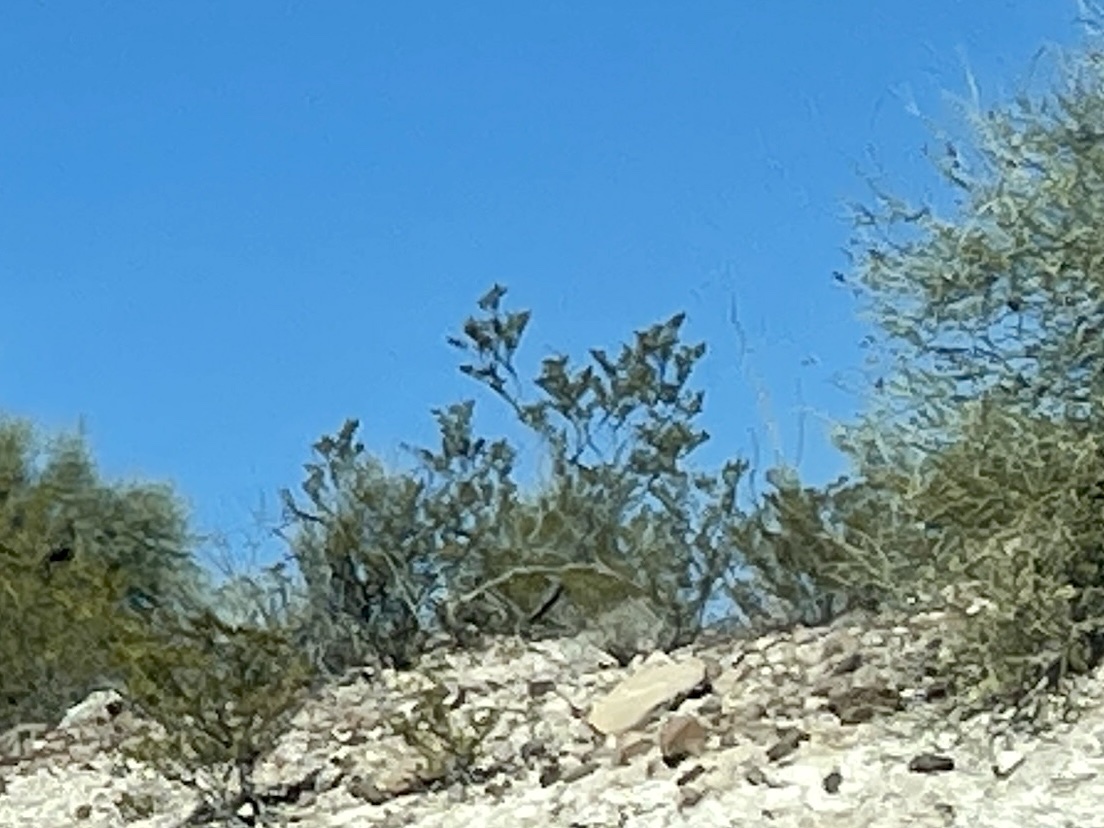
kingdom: Plantae
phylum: Tracheophyta
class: Magnoliopsida
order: Zygophyllales
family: Zygophyllaceae
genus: Larrea
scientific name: Larrea tridentata
